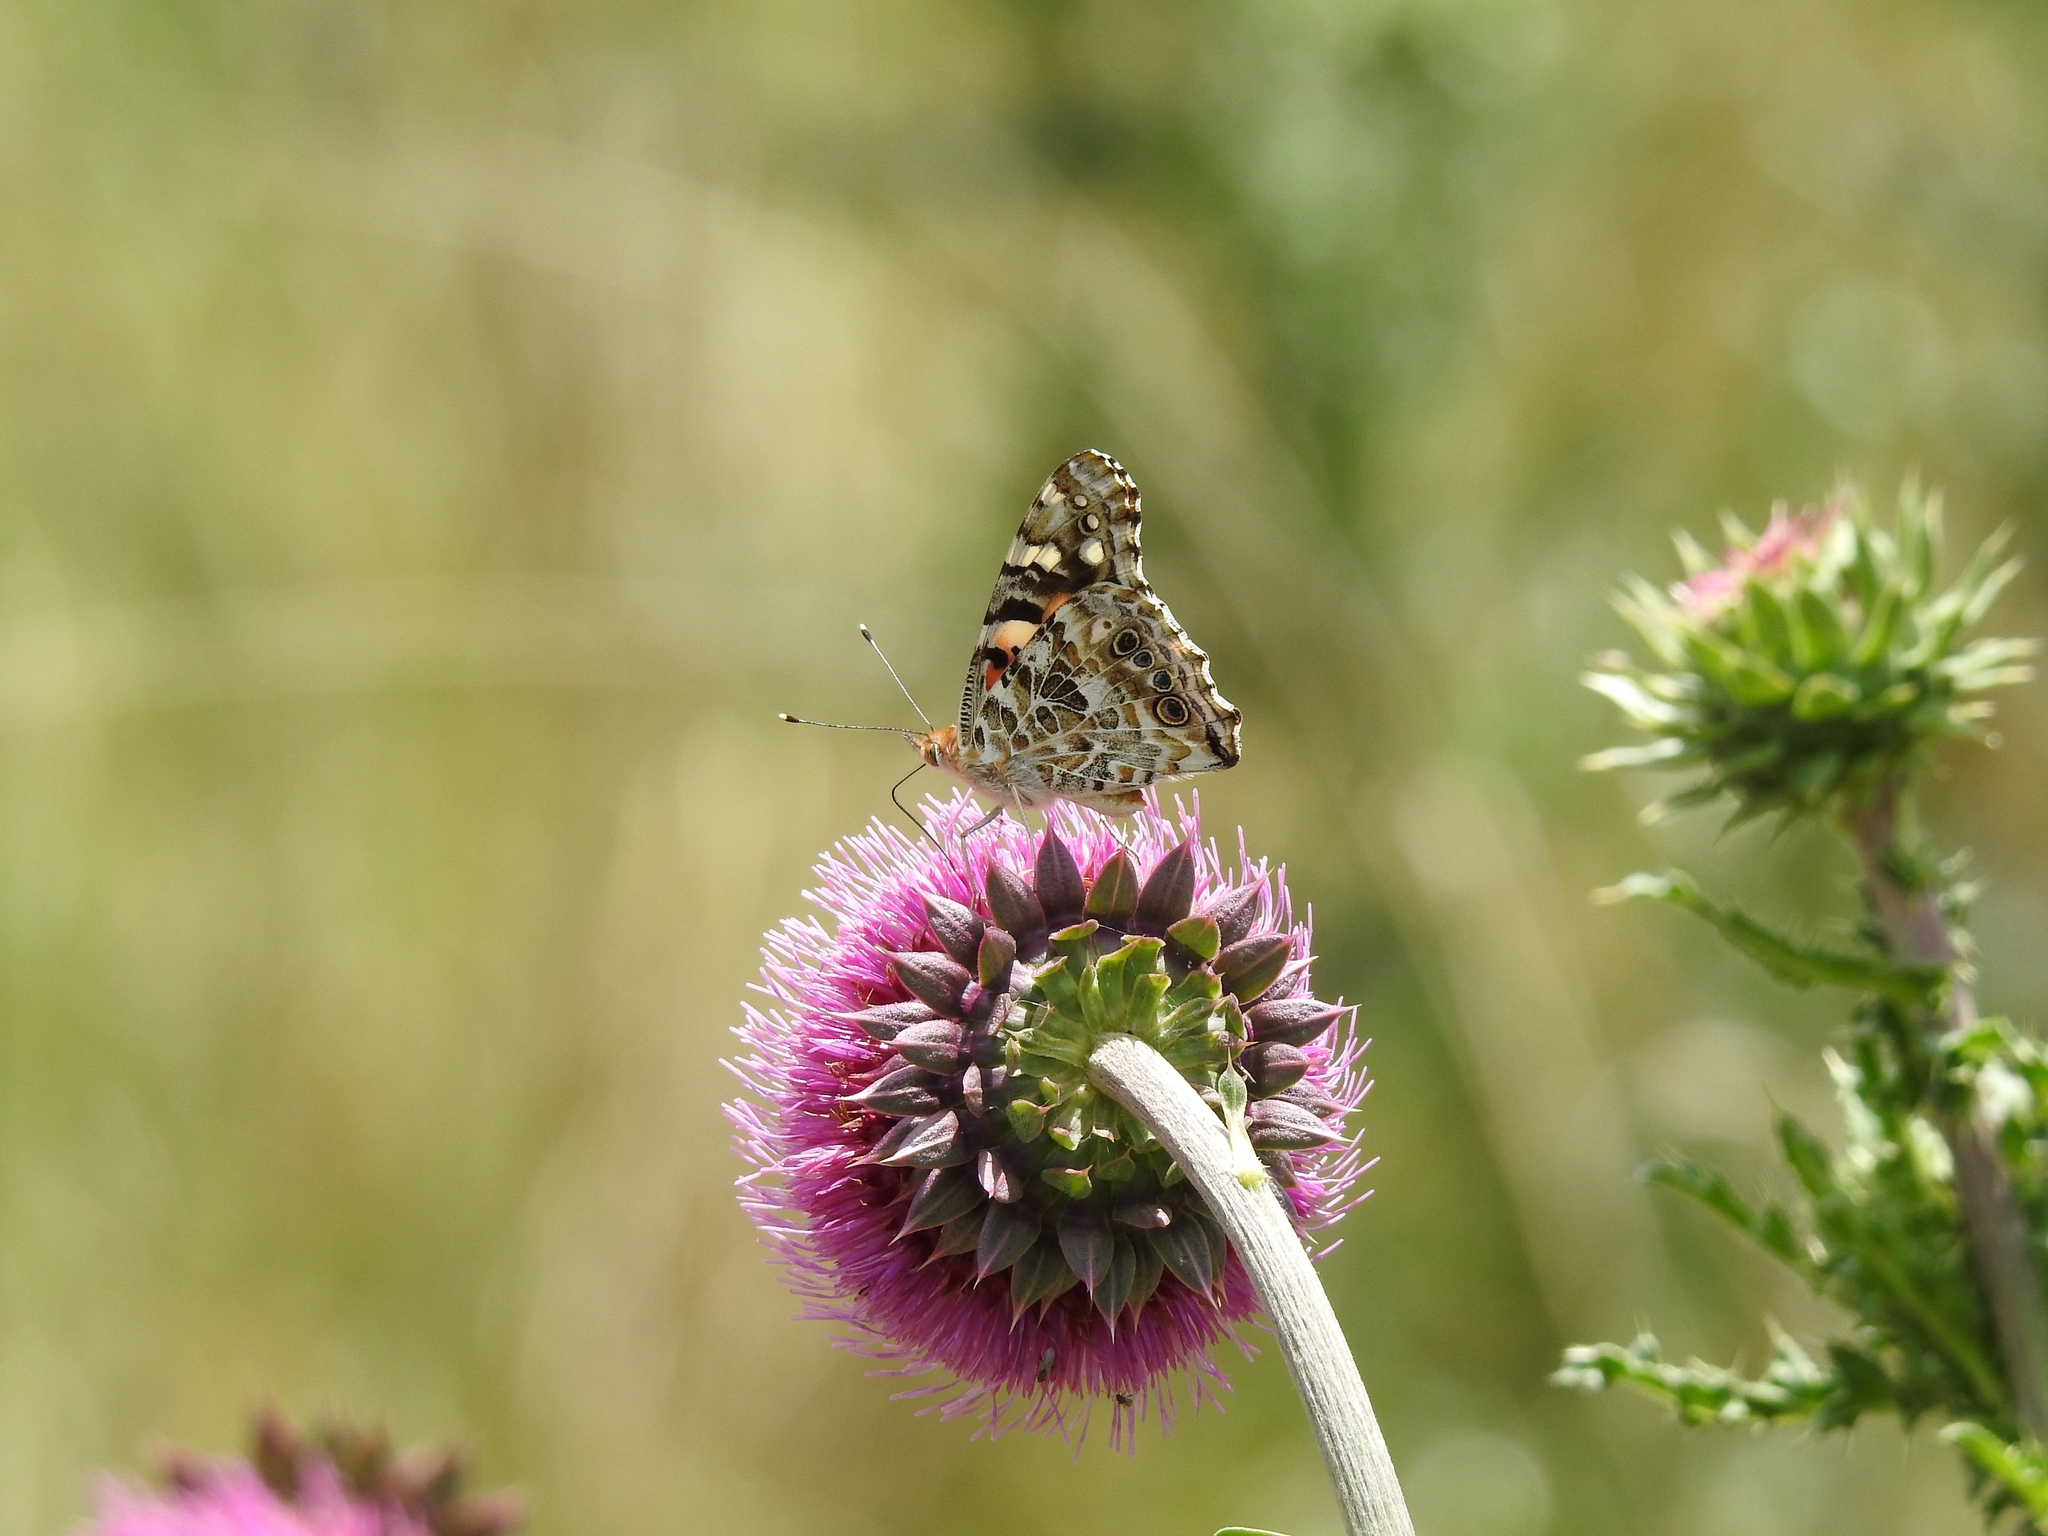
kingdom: Animalia
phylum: Arthropoda
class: Insecta
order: Lepidoptera
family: Nymphalidae
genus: Vanessa
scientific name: Vanessa cardui
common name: Painted lady
